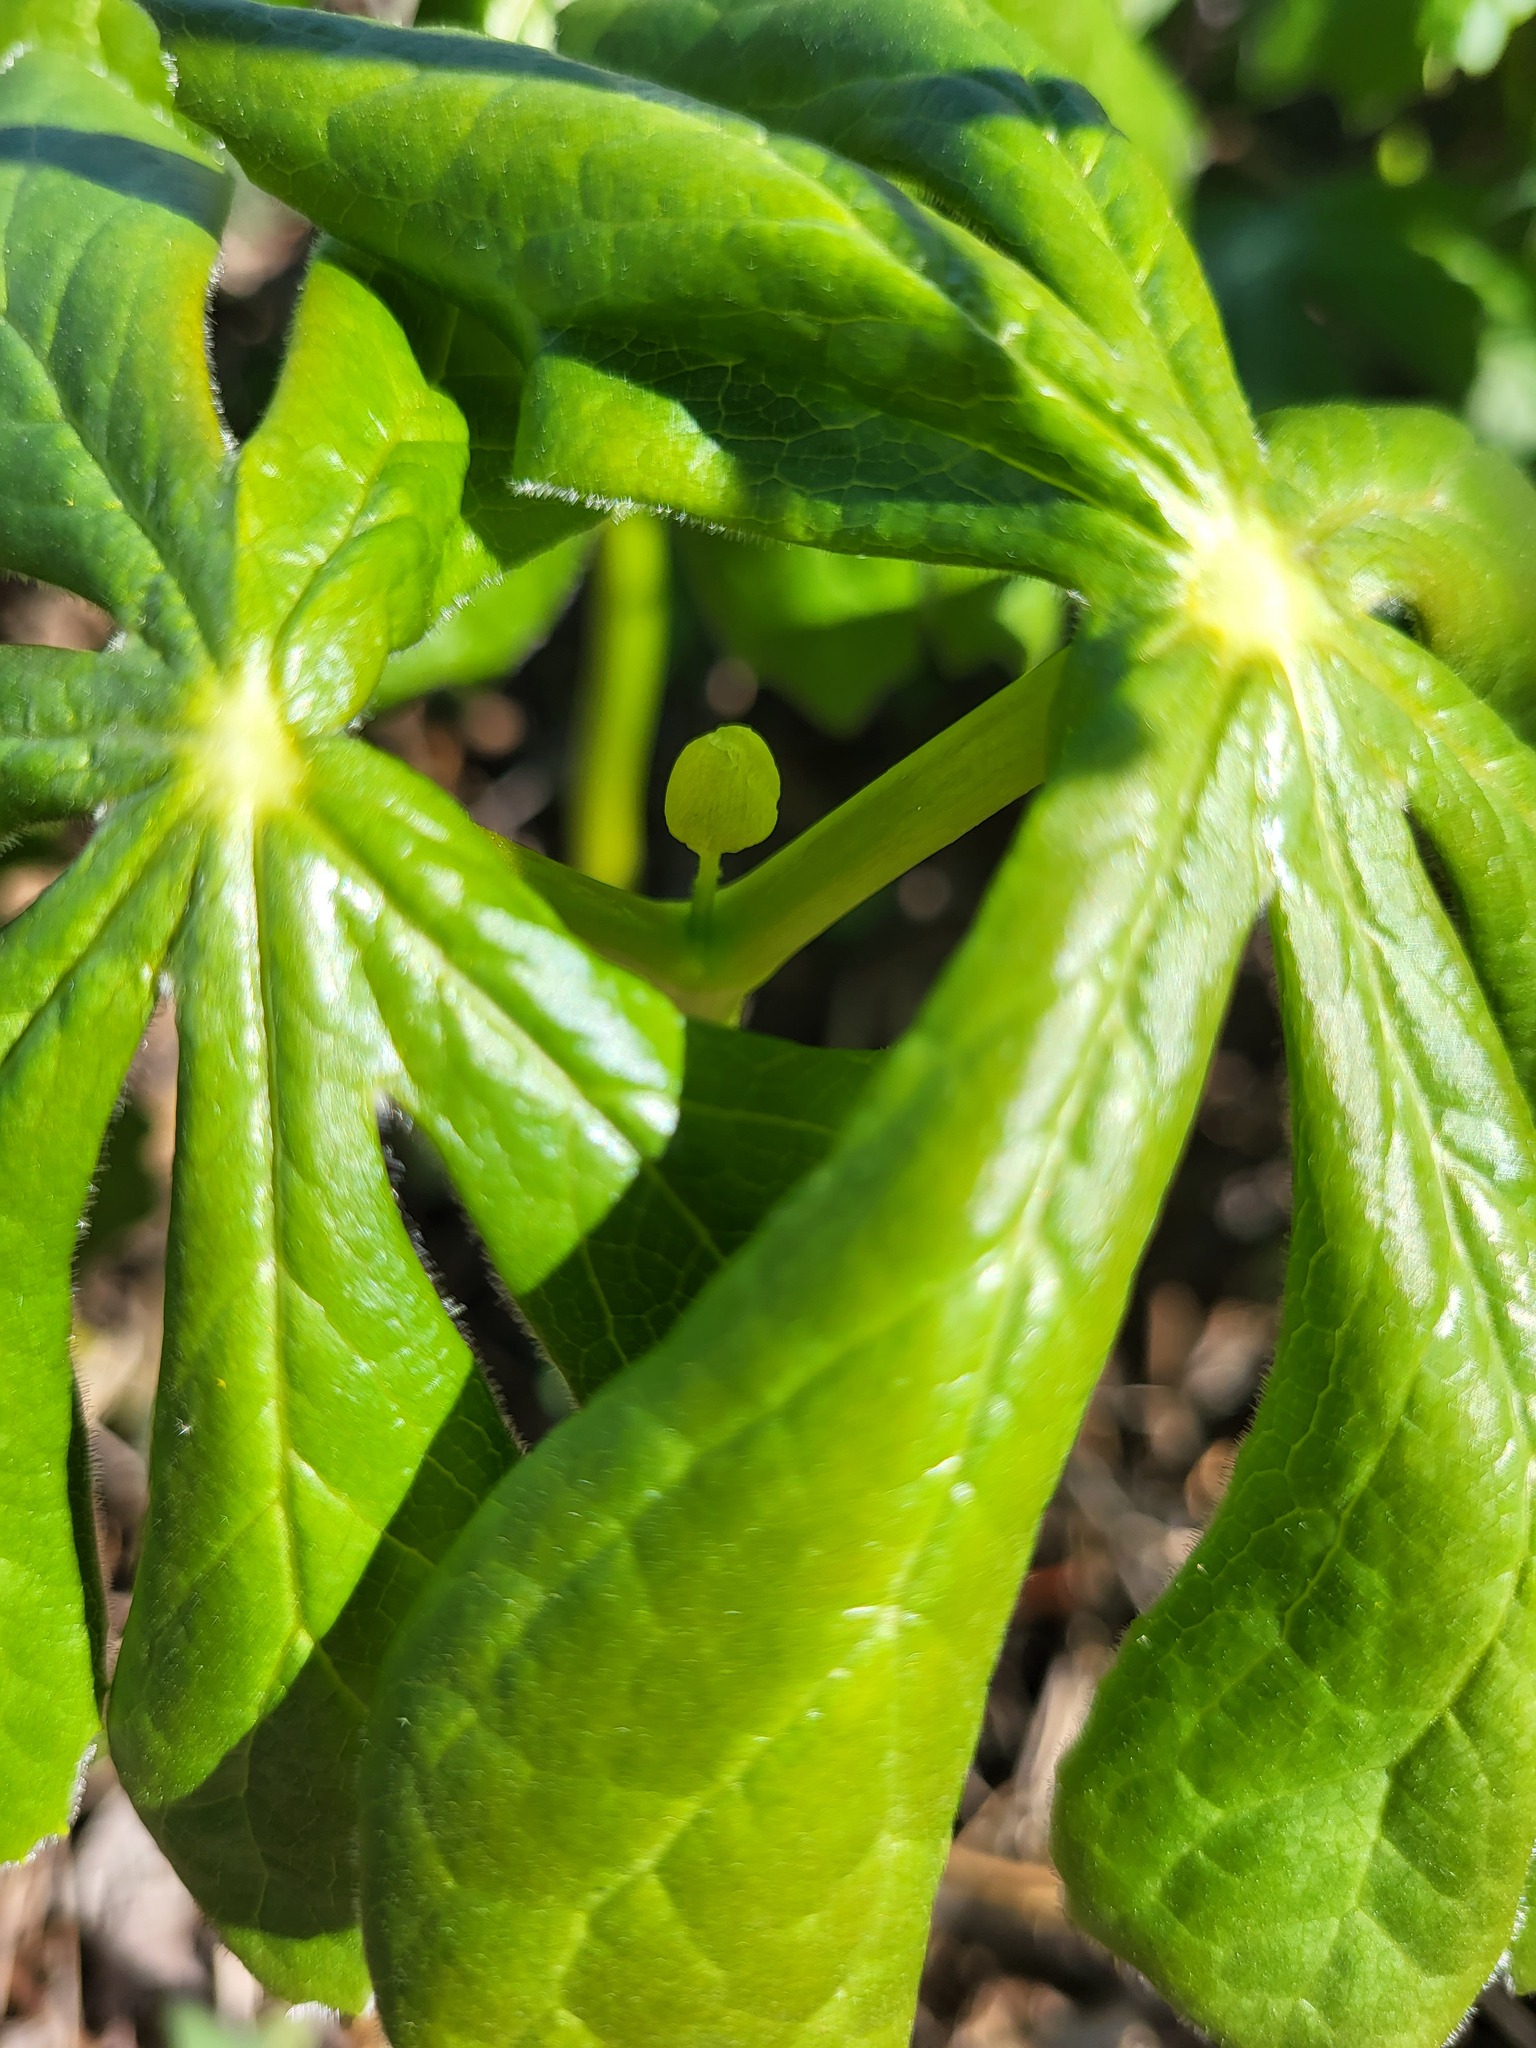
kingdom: Plantae
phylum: Tracheophyta
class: Magnoliopsida
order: Ranunculales
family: Berberidaceae
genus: Podophyllum
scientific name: Podophyllum peltatum
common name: Wild mandrake
